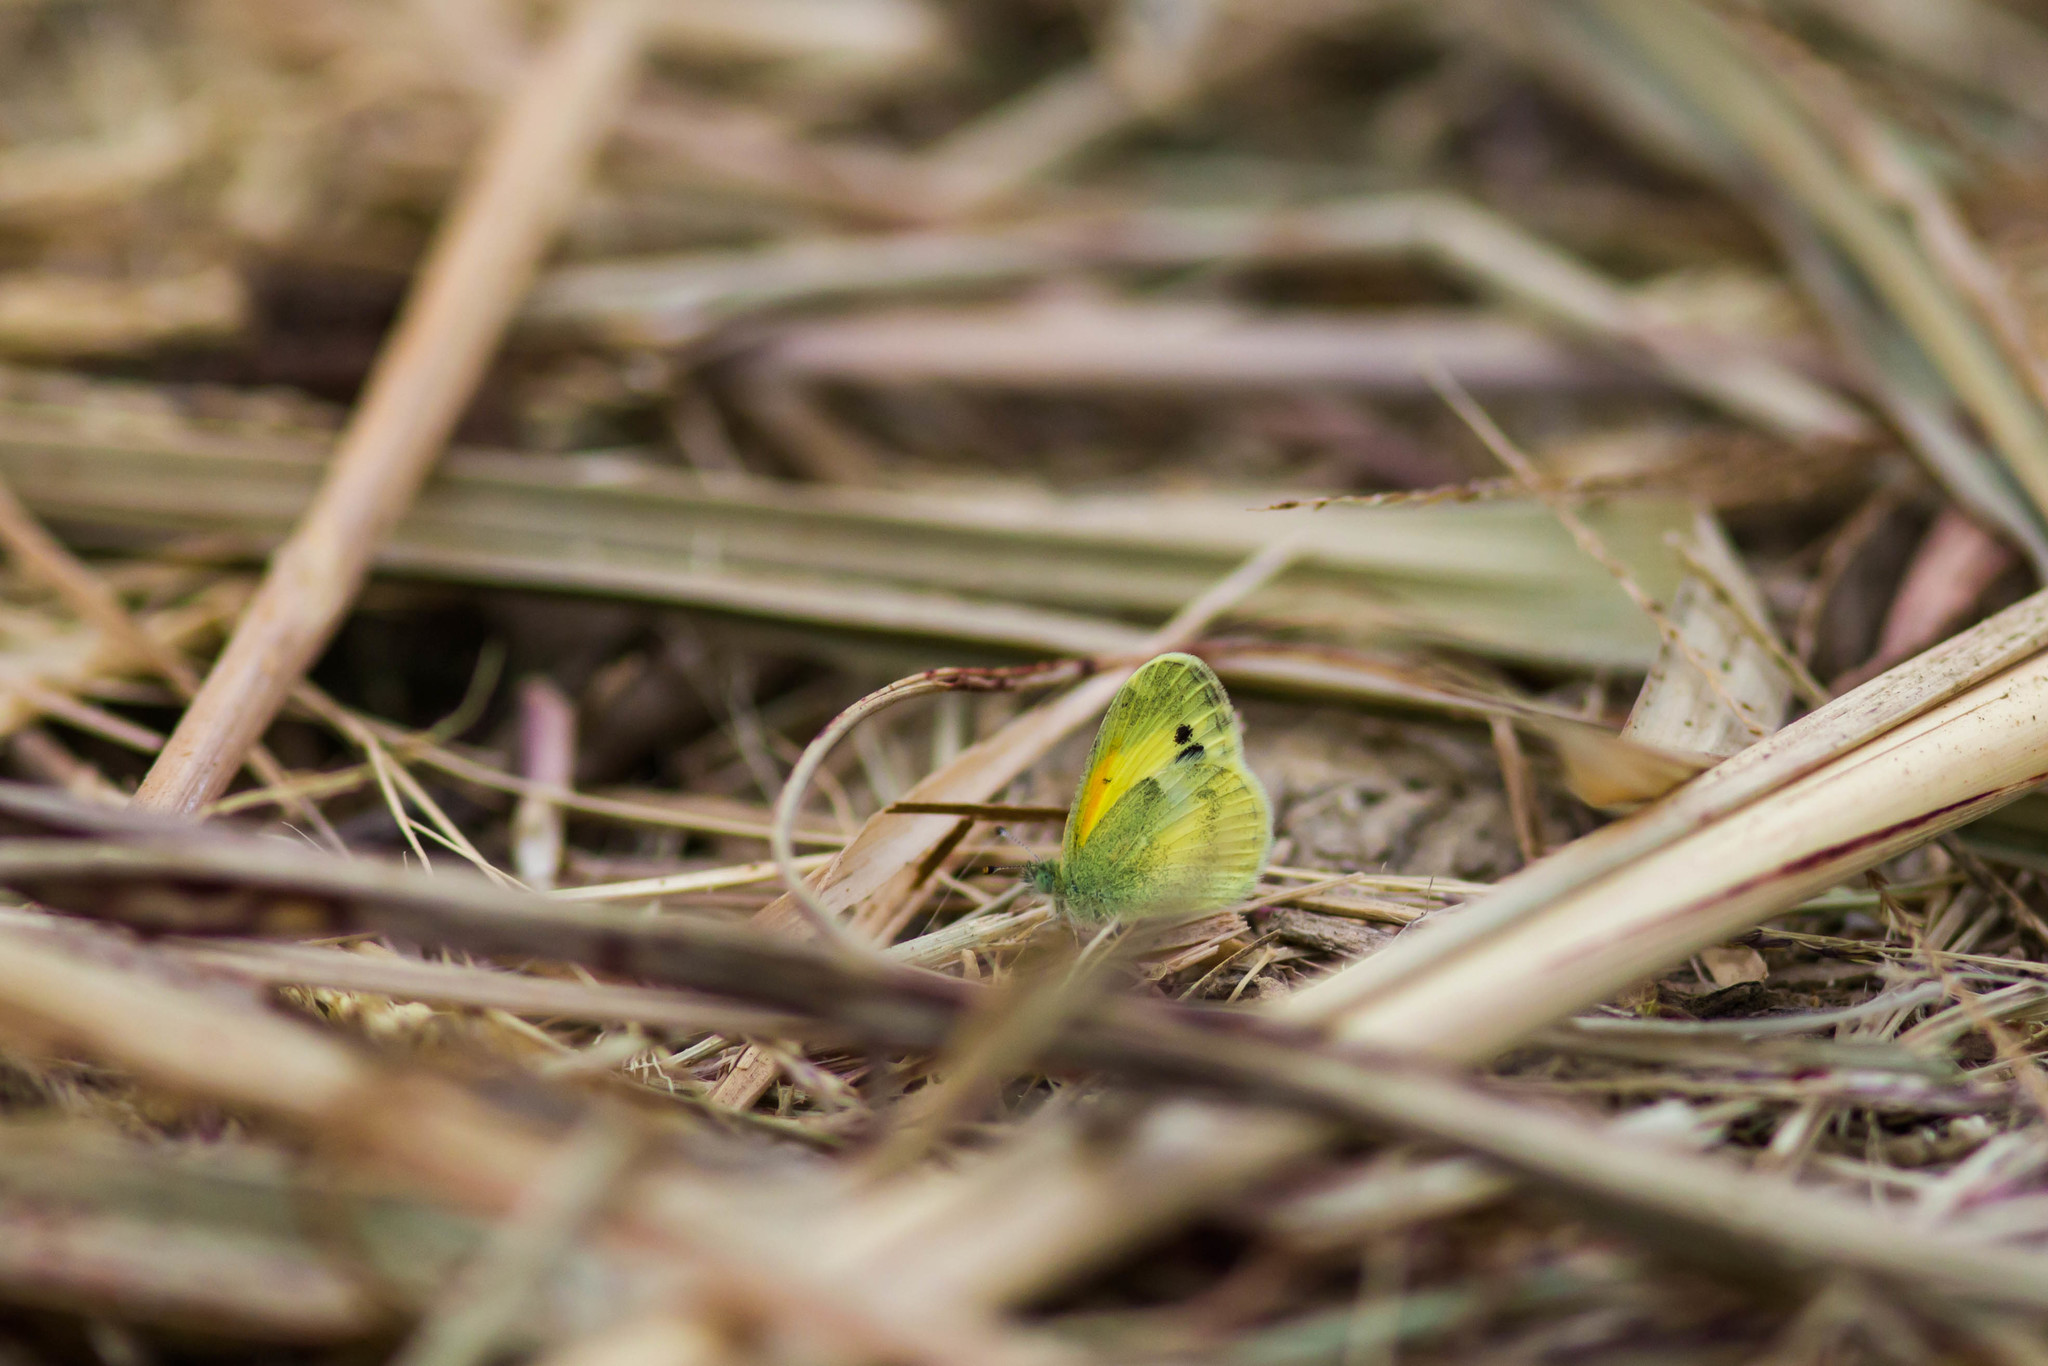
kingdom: Animalia
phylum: Arthropoda
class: Insecta
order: Lepidoptera
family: Pieridae
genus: Nathalis
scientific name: Nathalis iole
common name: Dainty sulphur
